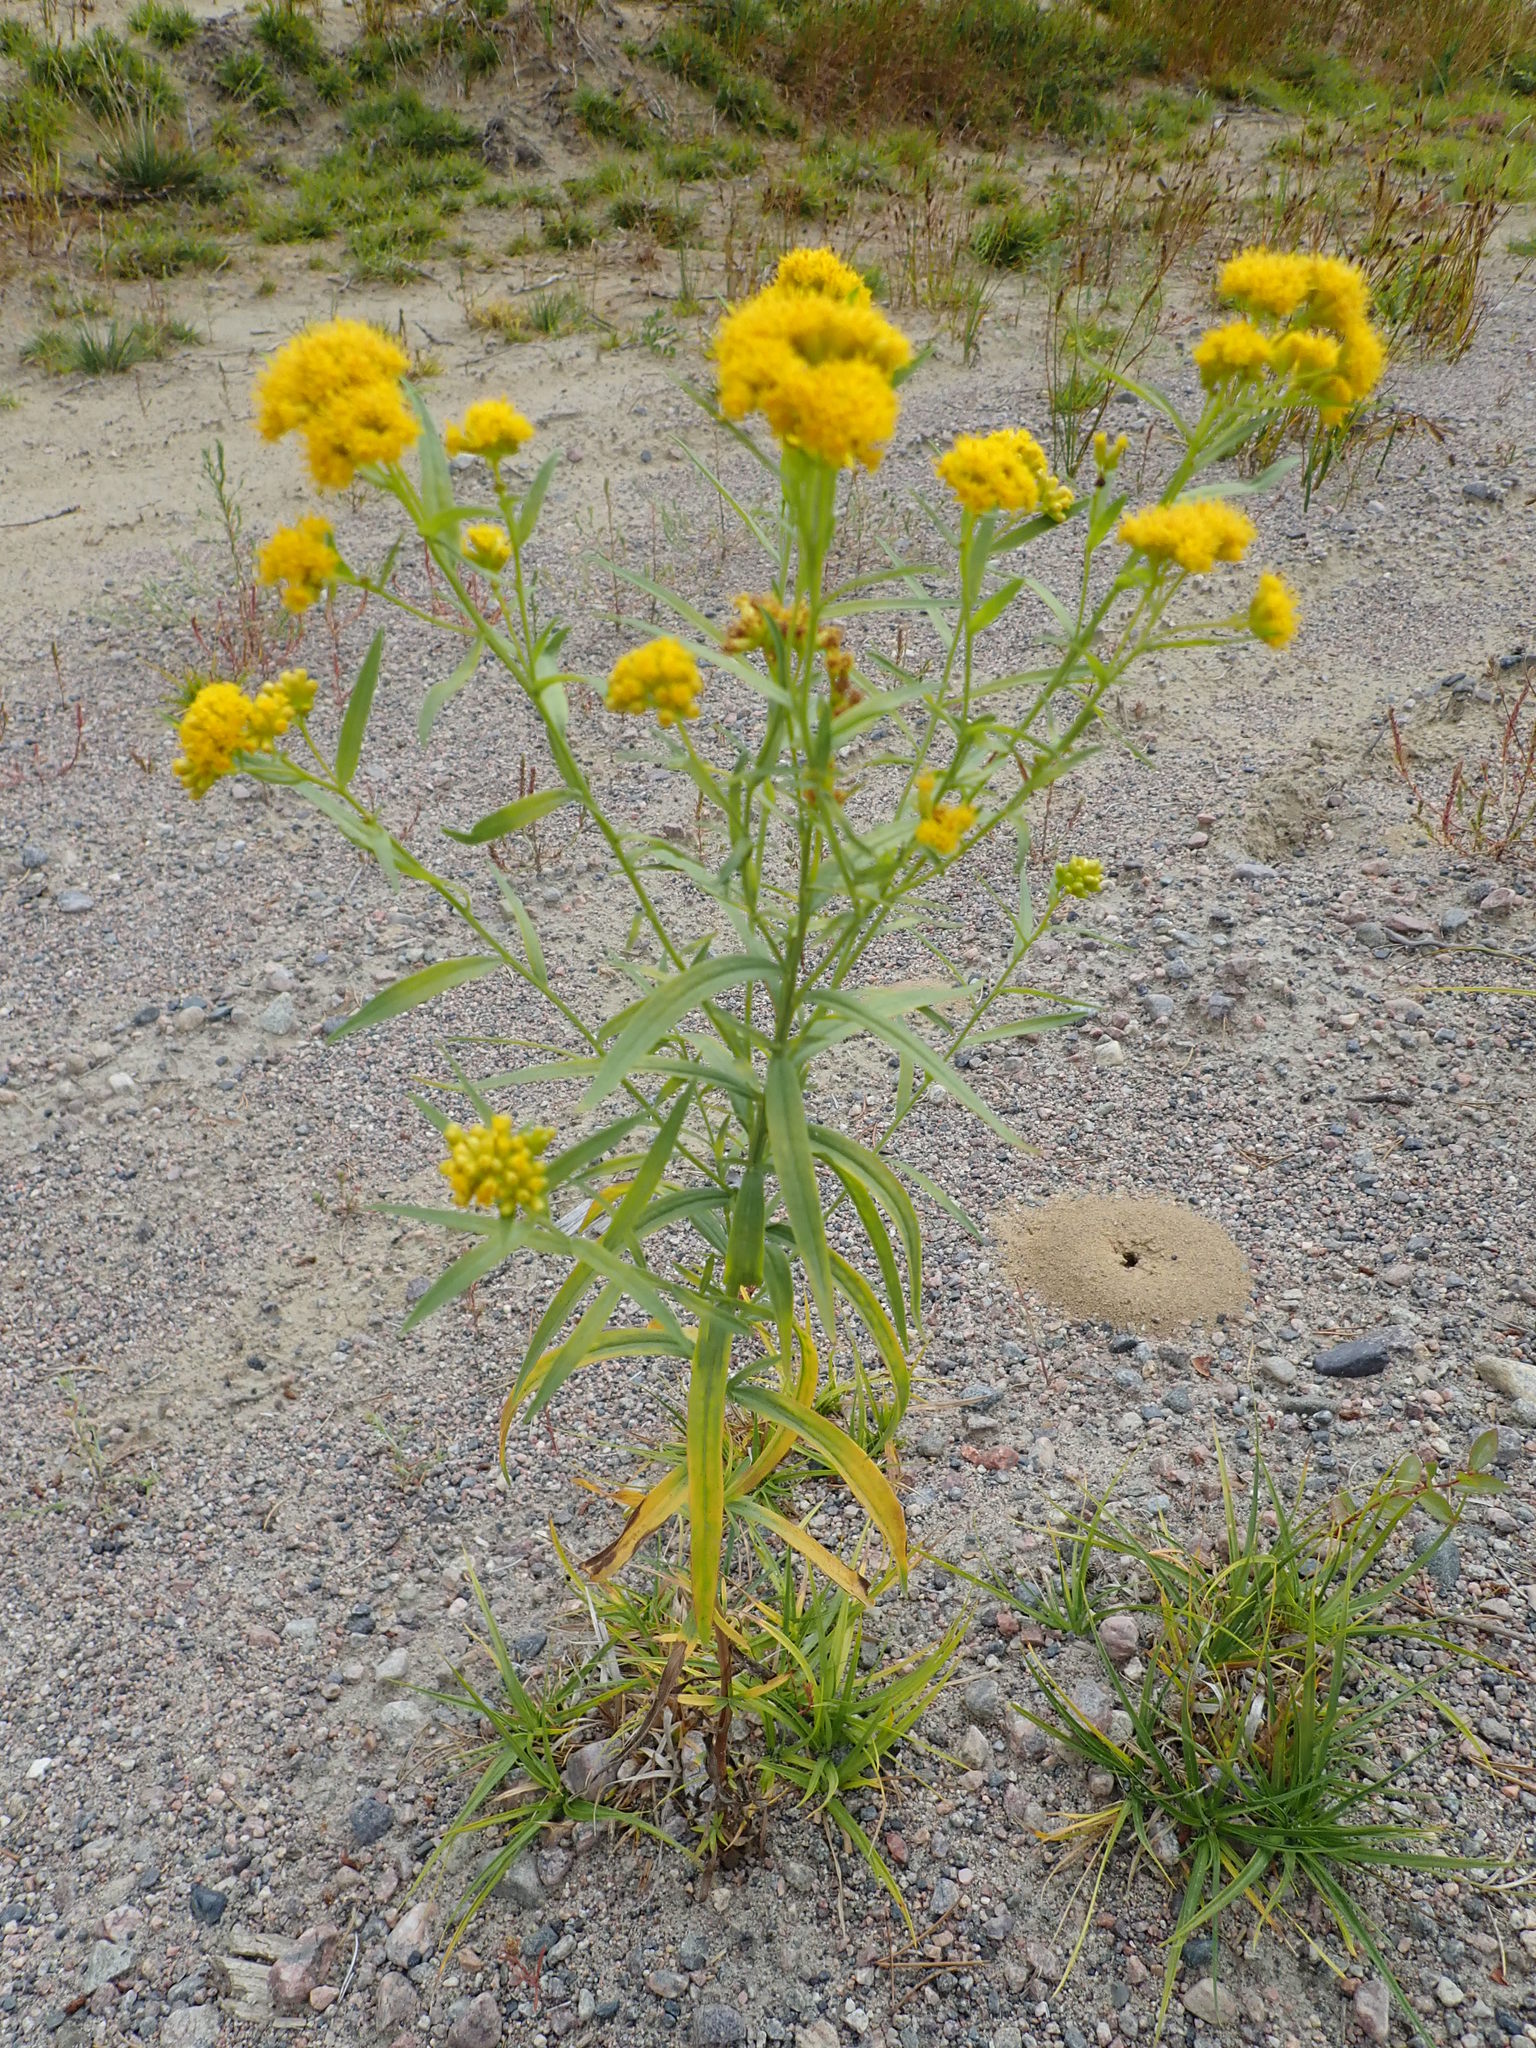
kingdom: Plantae
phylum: Tracheophyta
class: Magnoliopsida
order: Asterales
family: Asteraceae
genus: Euthamia
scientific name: Euthamia graminifolia
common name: Common goldentop
